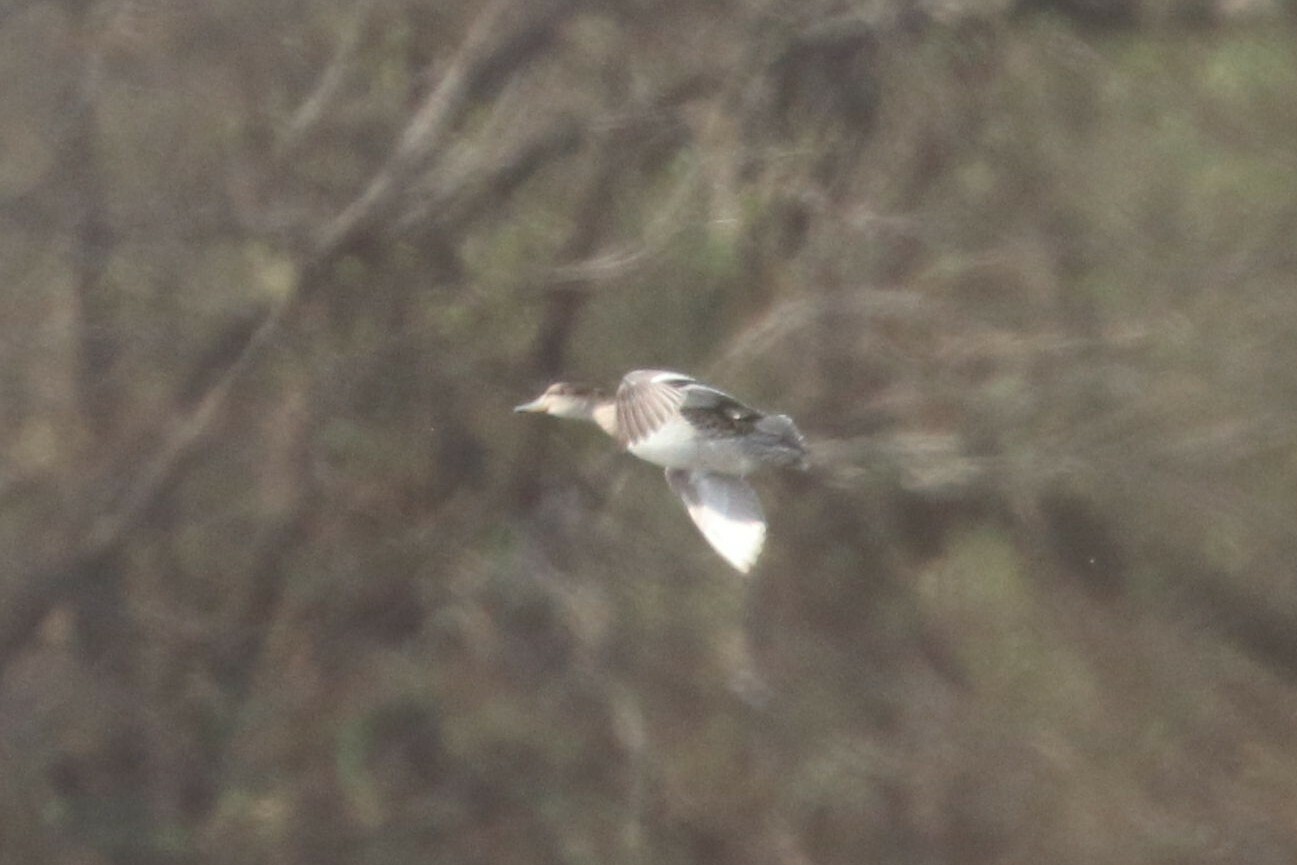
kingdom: Animalia
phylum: Chordata
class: Aves
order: Anseriformes
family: Anatidae
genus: Melanitta
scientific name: Melanitta nigra
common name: Common scoter
